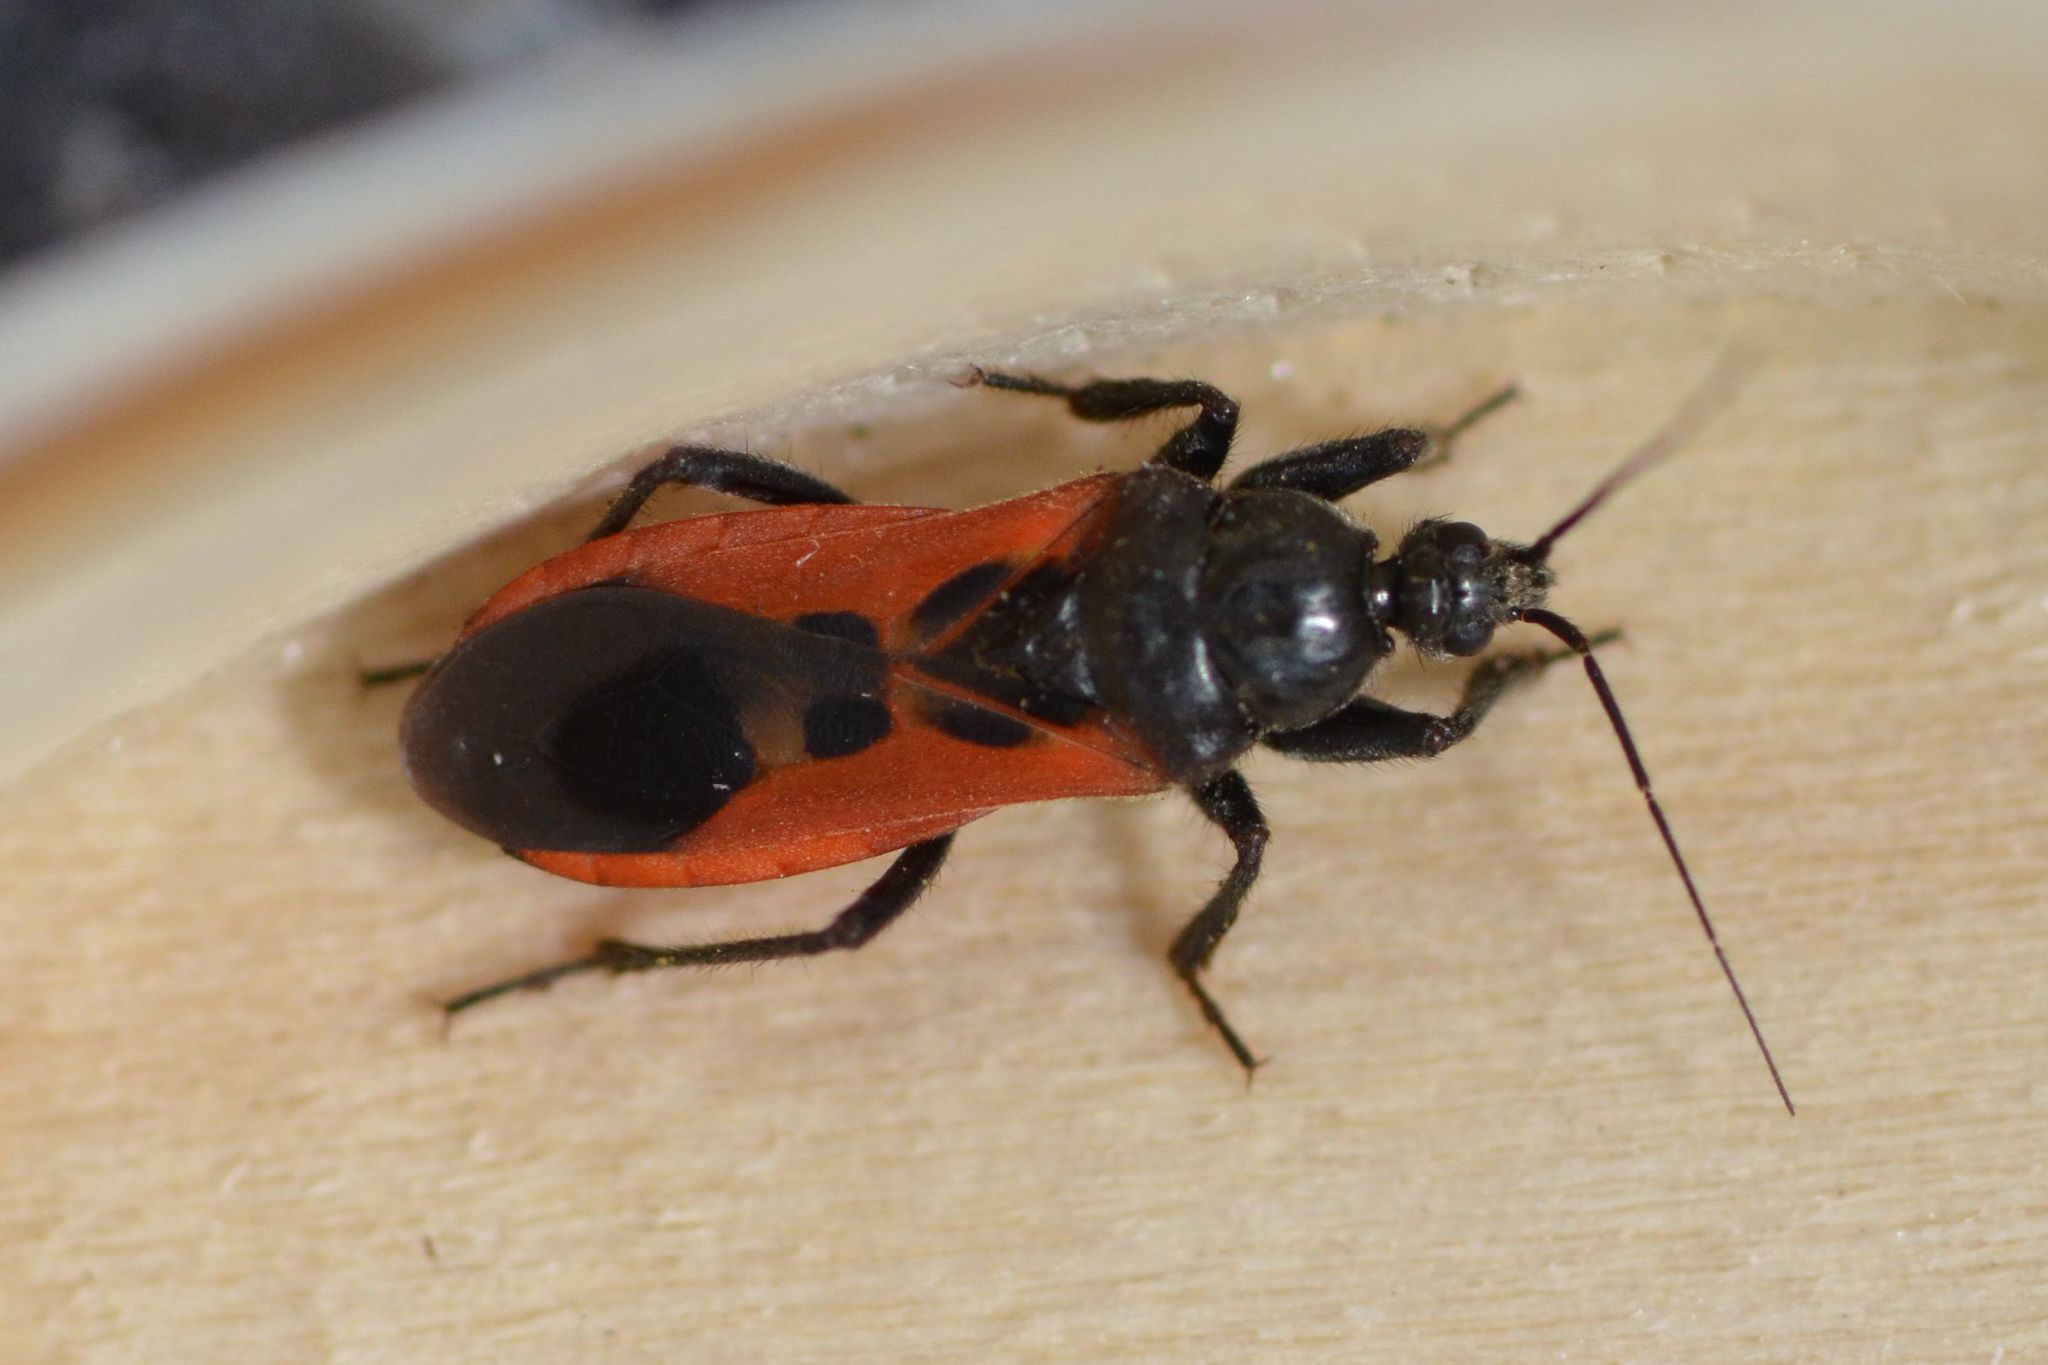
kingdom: Animalia
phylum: Arthropoda
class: Insecta
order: Hemiptera
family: Reduviidae
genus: Peirates
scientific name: Peirates hybridus
